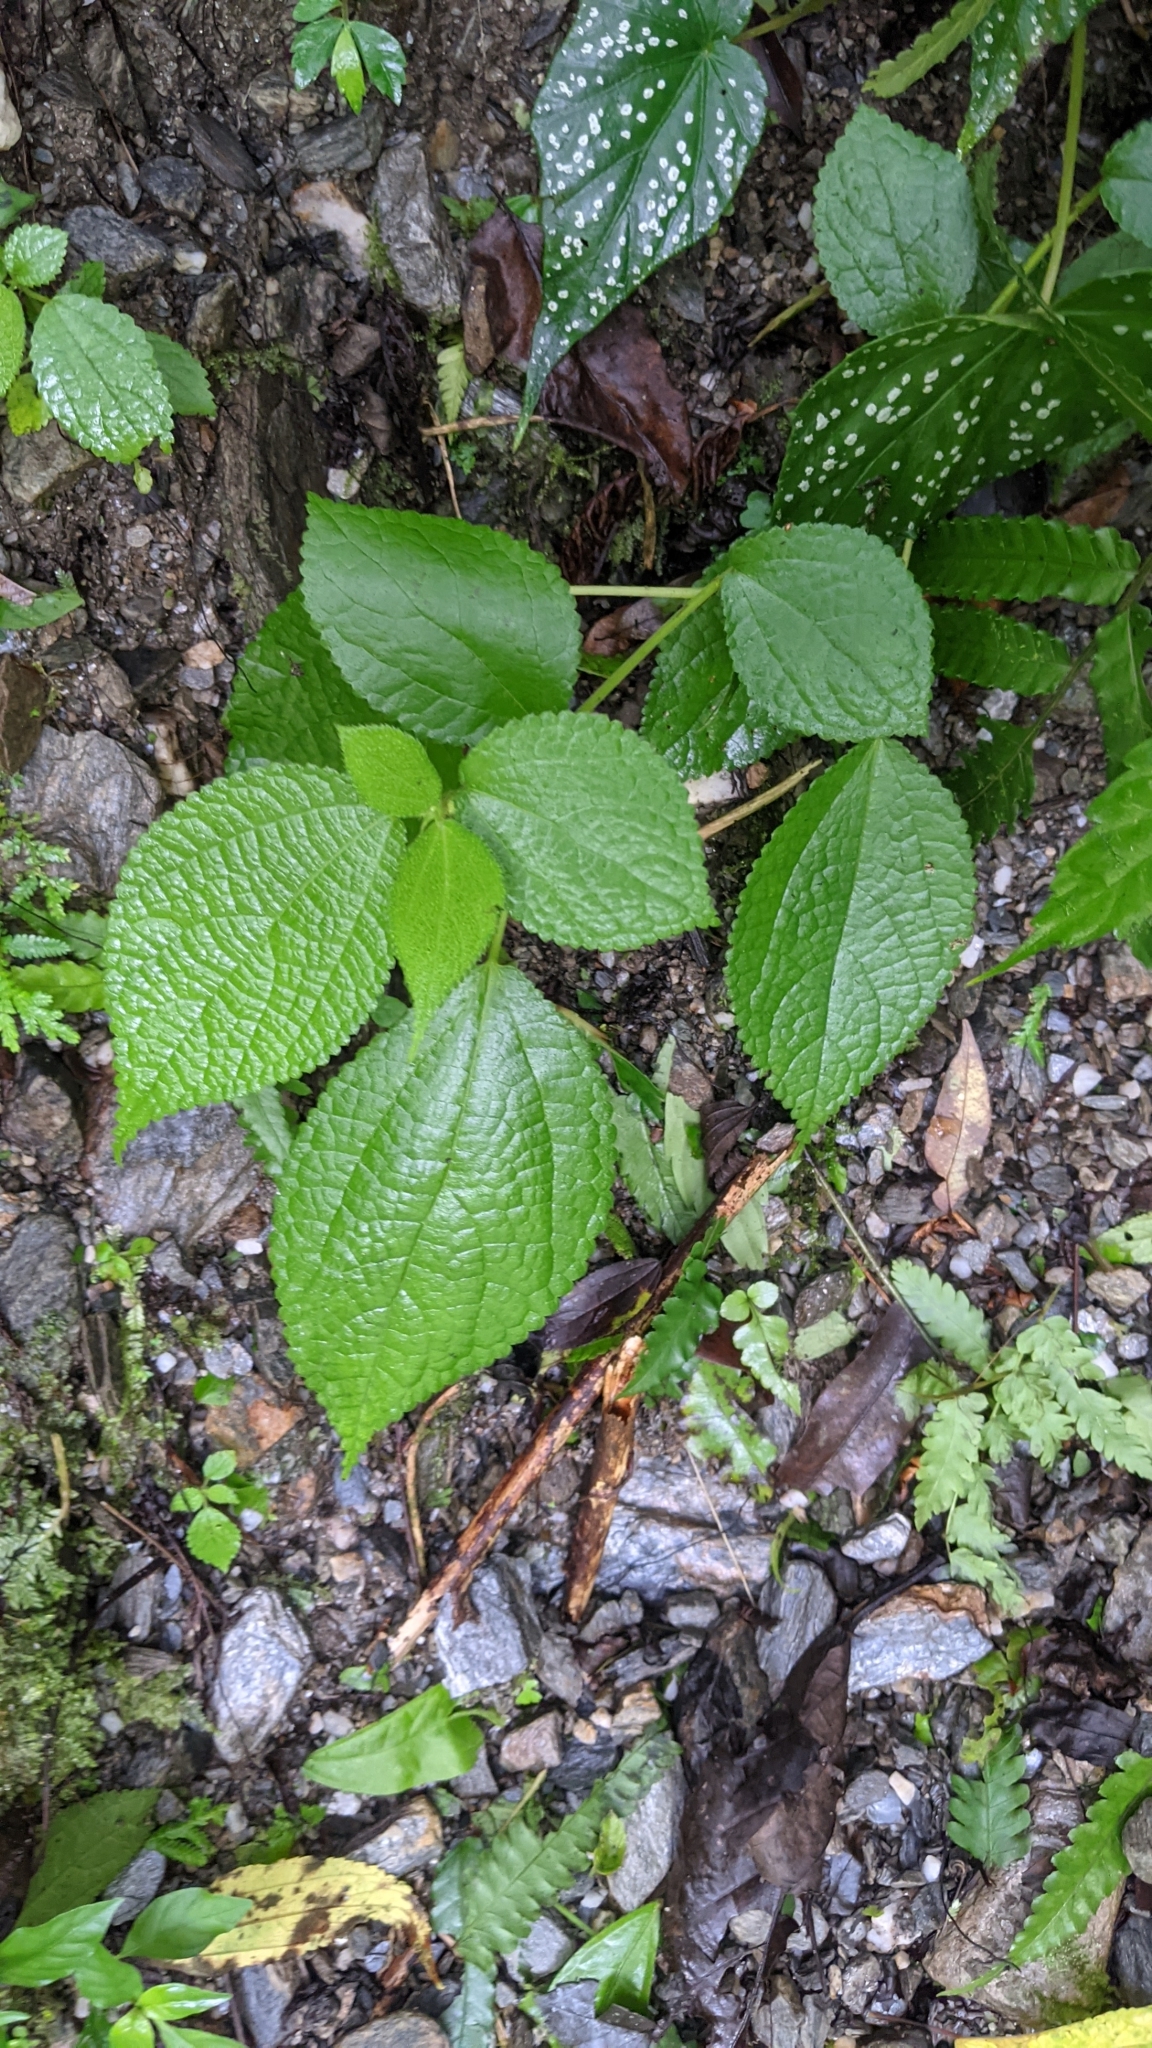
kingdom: Plantae
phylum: Tracheophyta
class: Magnoliopsida
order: Rosales
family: Urticaceae
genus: Boehmeria
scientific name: Boehmeria pilosiuscula
